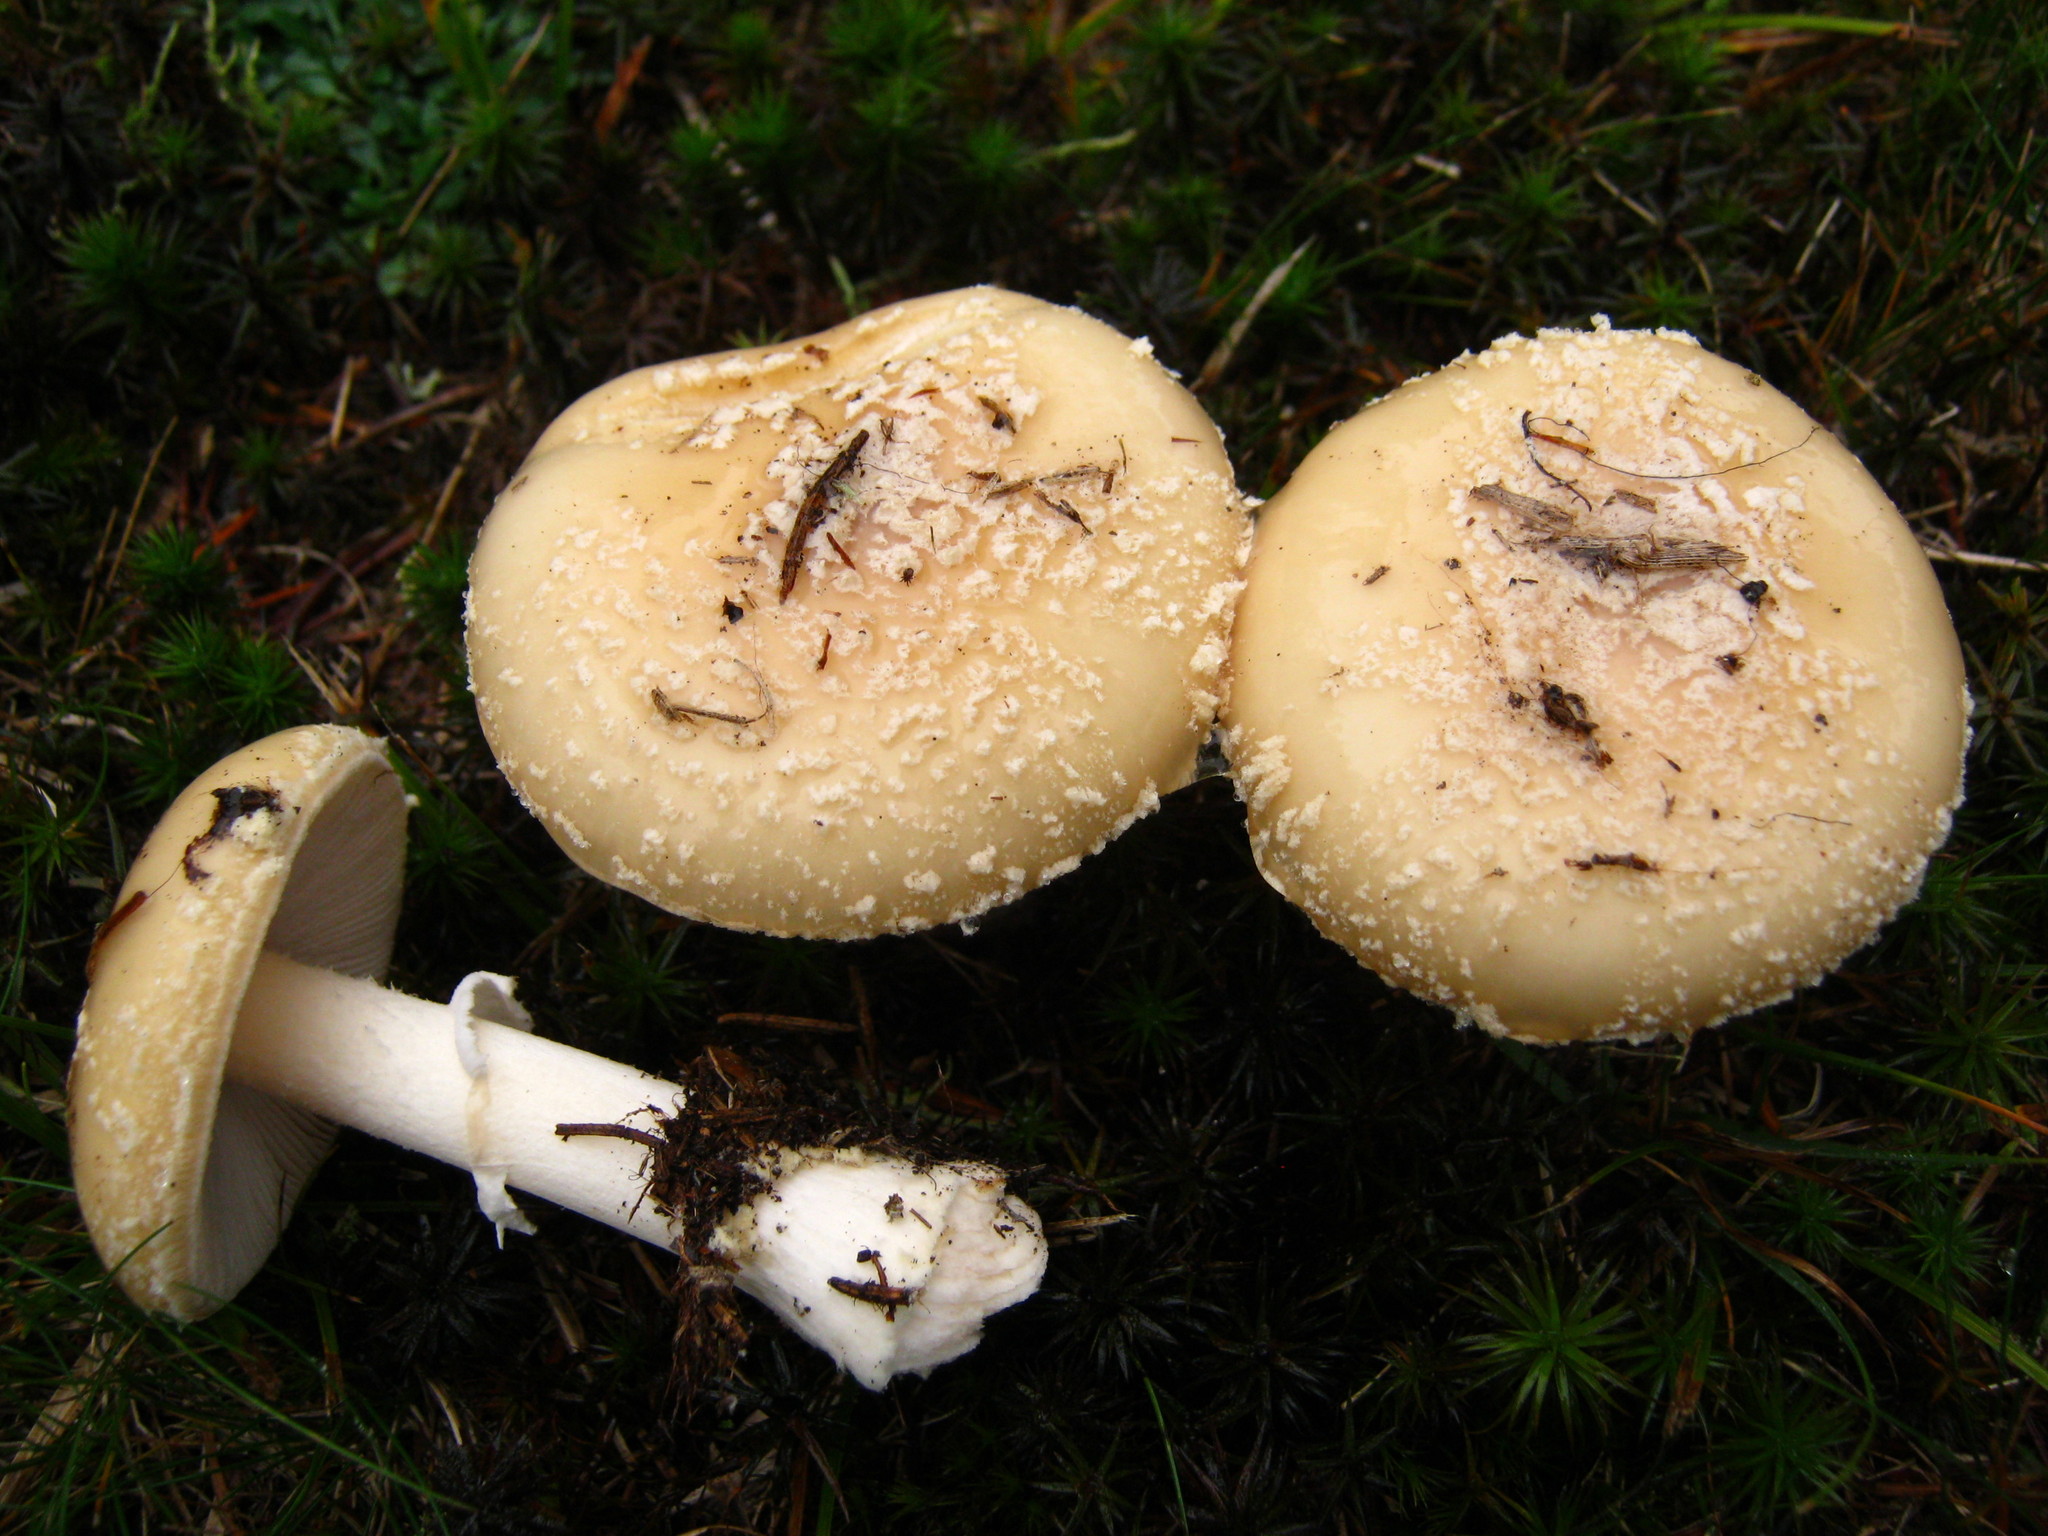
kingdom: Fungi
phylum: Basidiomycota
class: Agaricomycetes
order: Agaricales
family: Amanitaceae
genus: Amanita
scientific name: Amanita crenulata
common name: Poison champagne amanita
